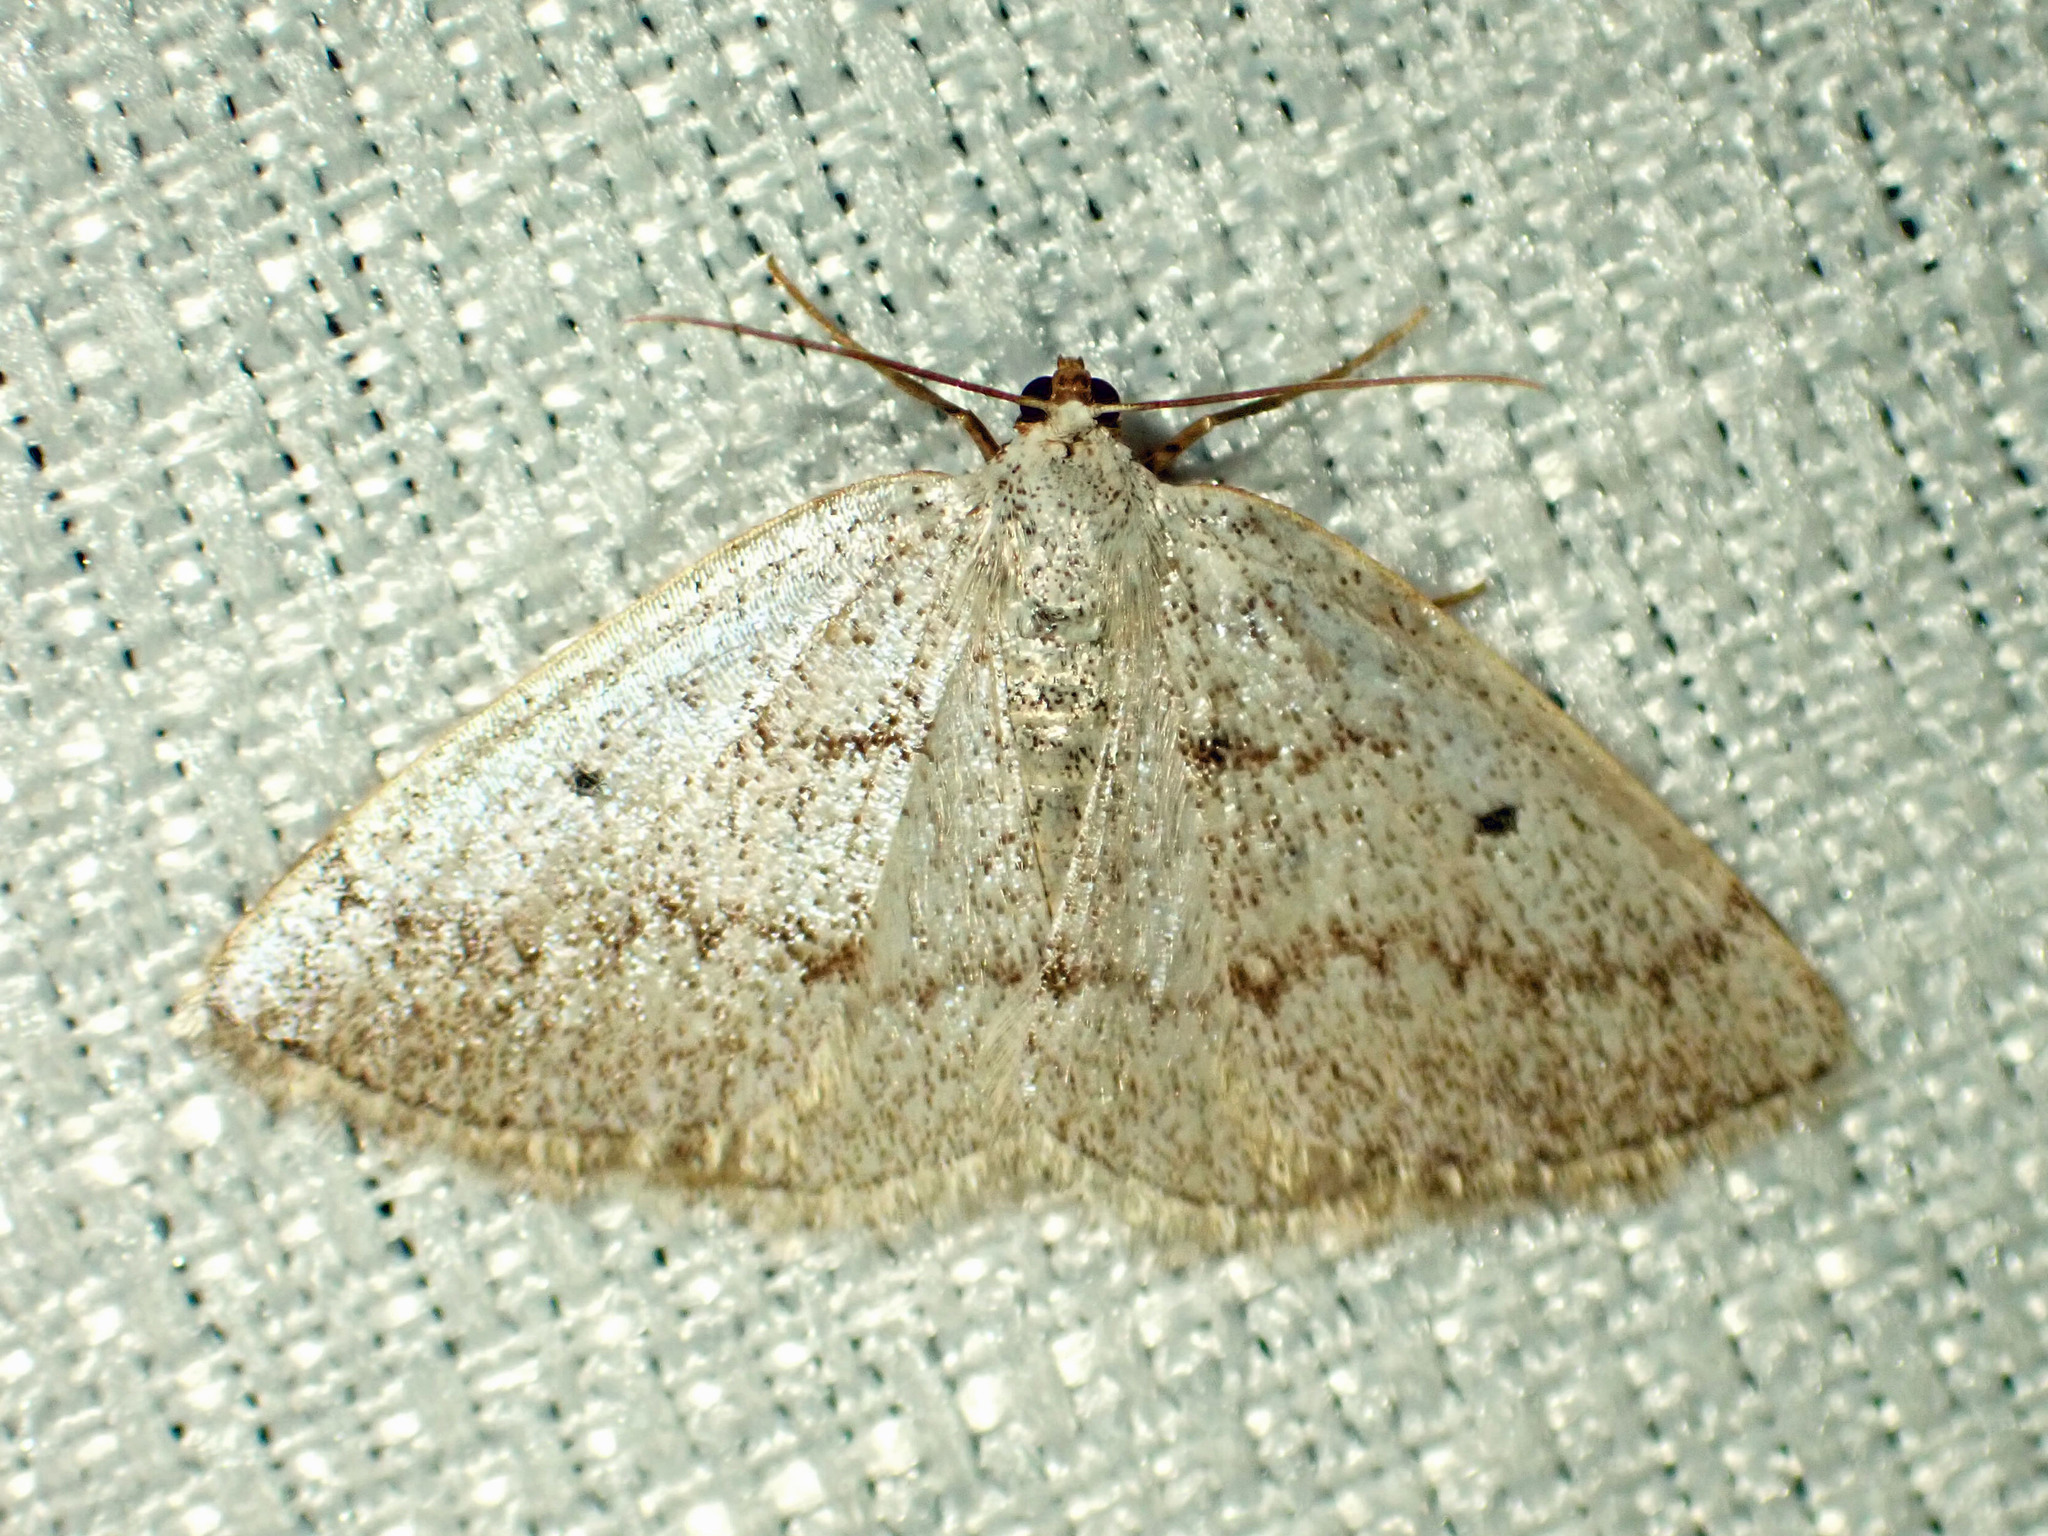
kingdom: Animalia
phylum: Arthropoda
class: Insecta
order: Lepidoptera
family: Geometridae
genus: Lomographa
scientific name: Lomographa glomeraria
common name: Gray spring moth
